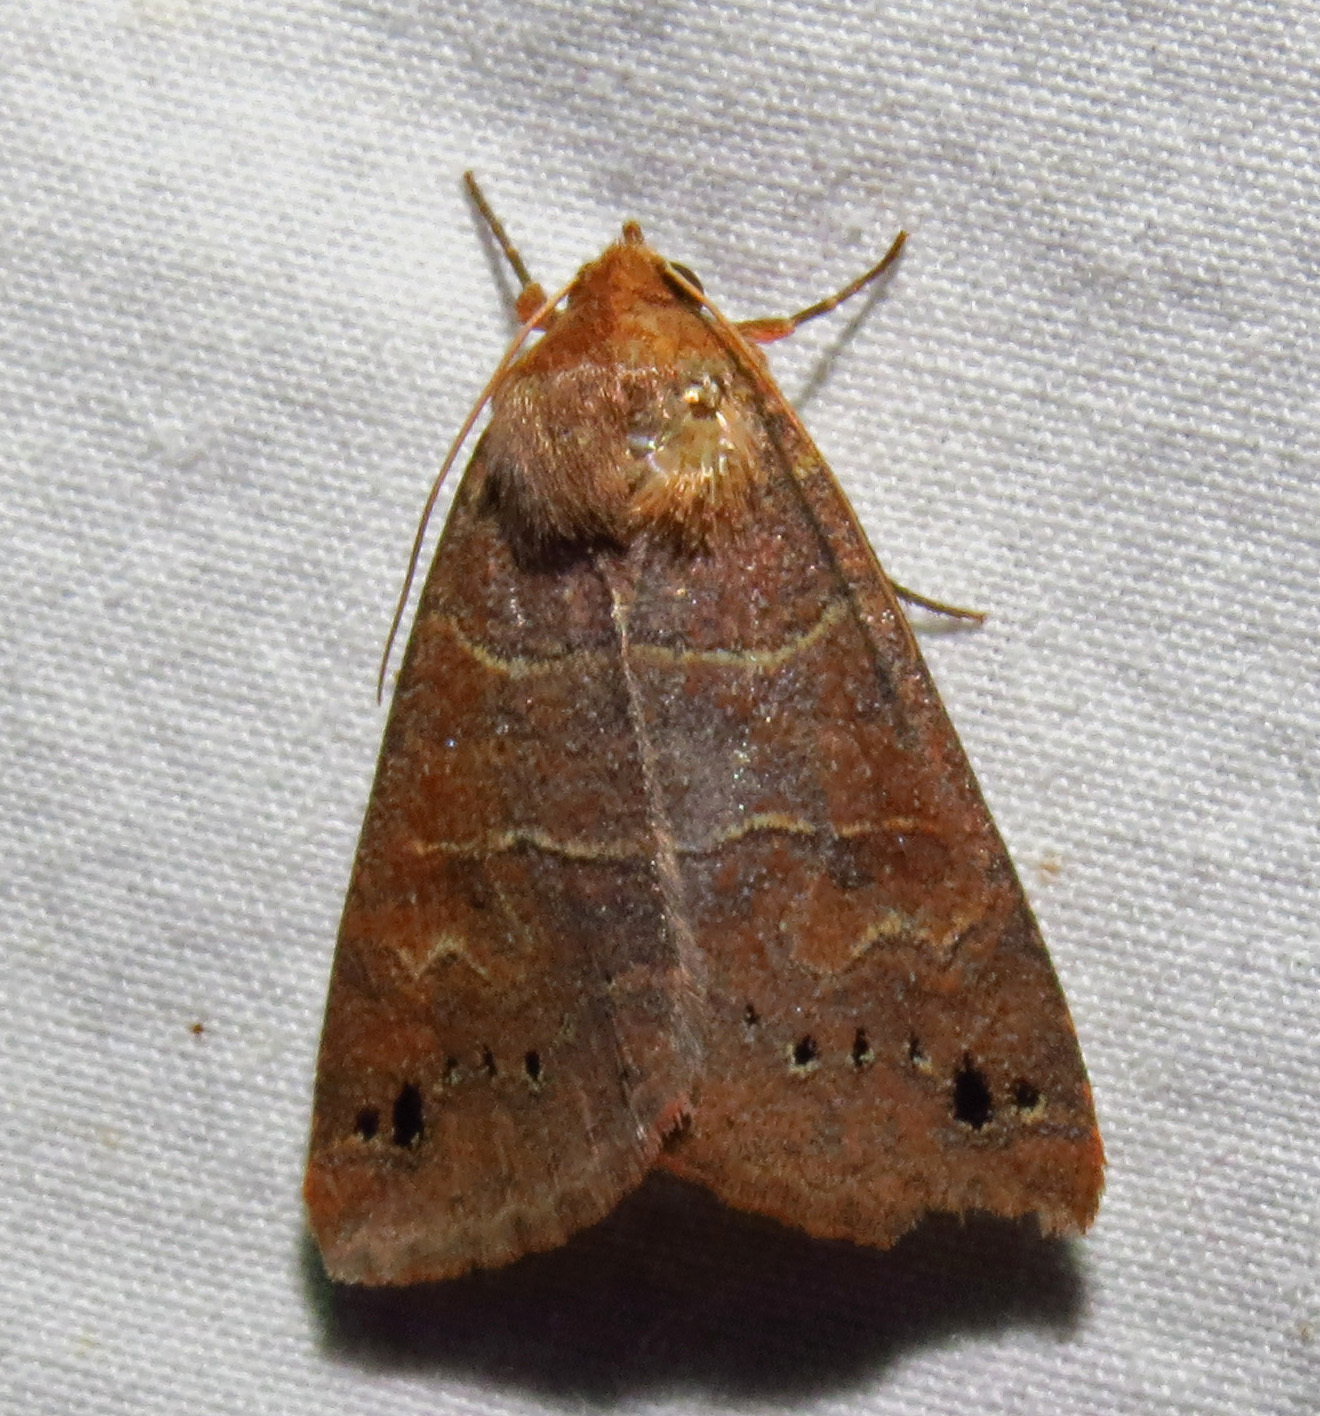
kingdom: Animalia
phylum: Arthropoda
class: Insecta
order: Lepidoptera
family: Erebidae
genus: Cissusa
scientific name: Cissusa spadix
